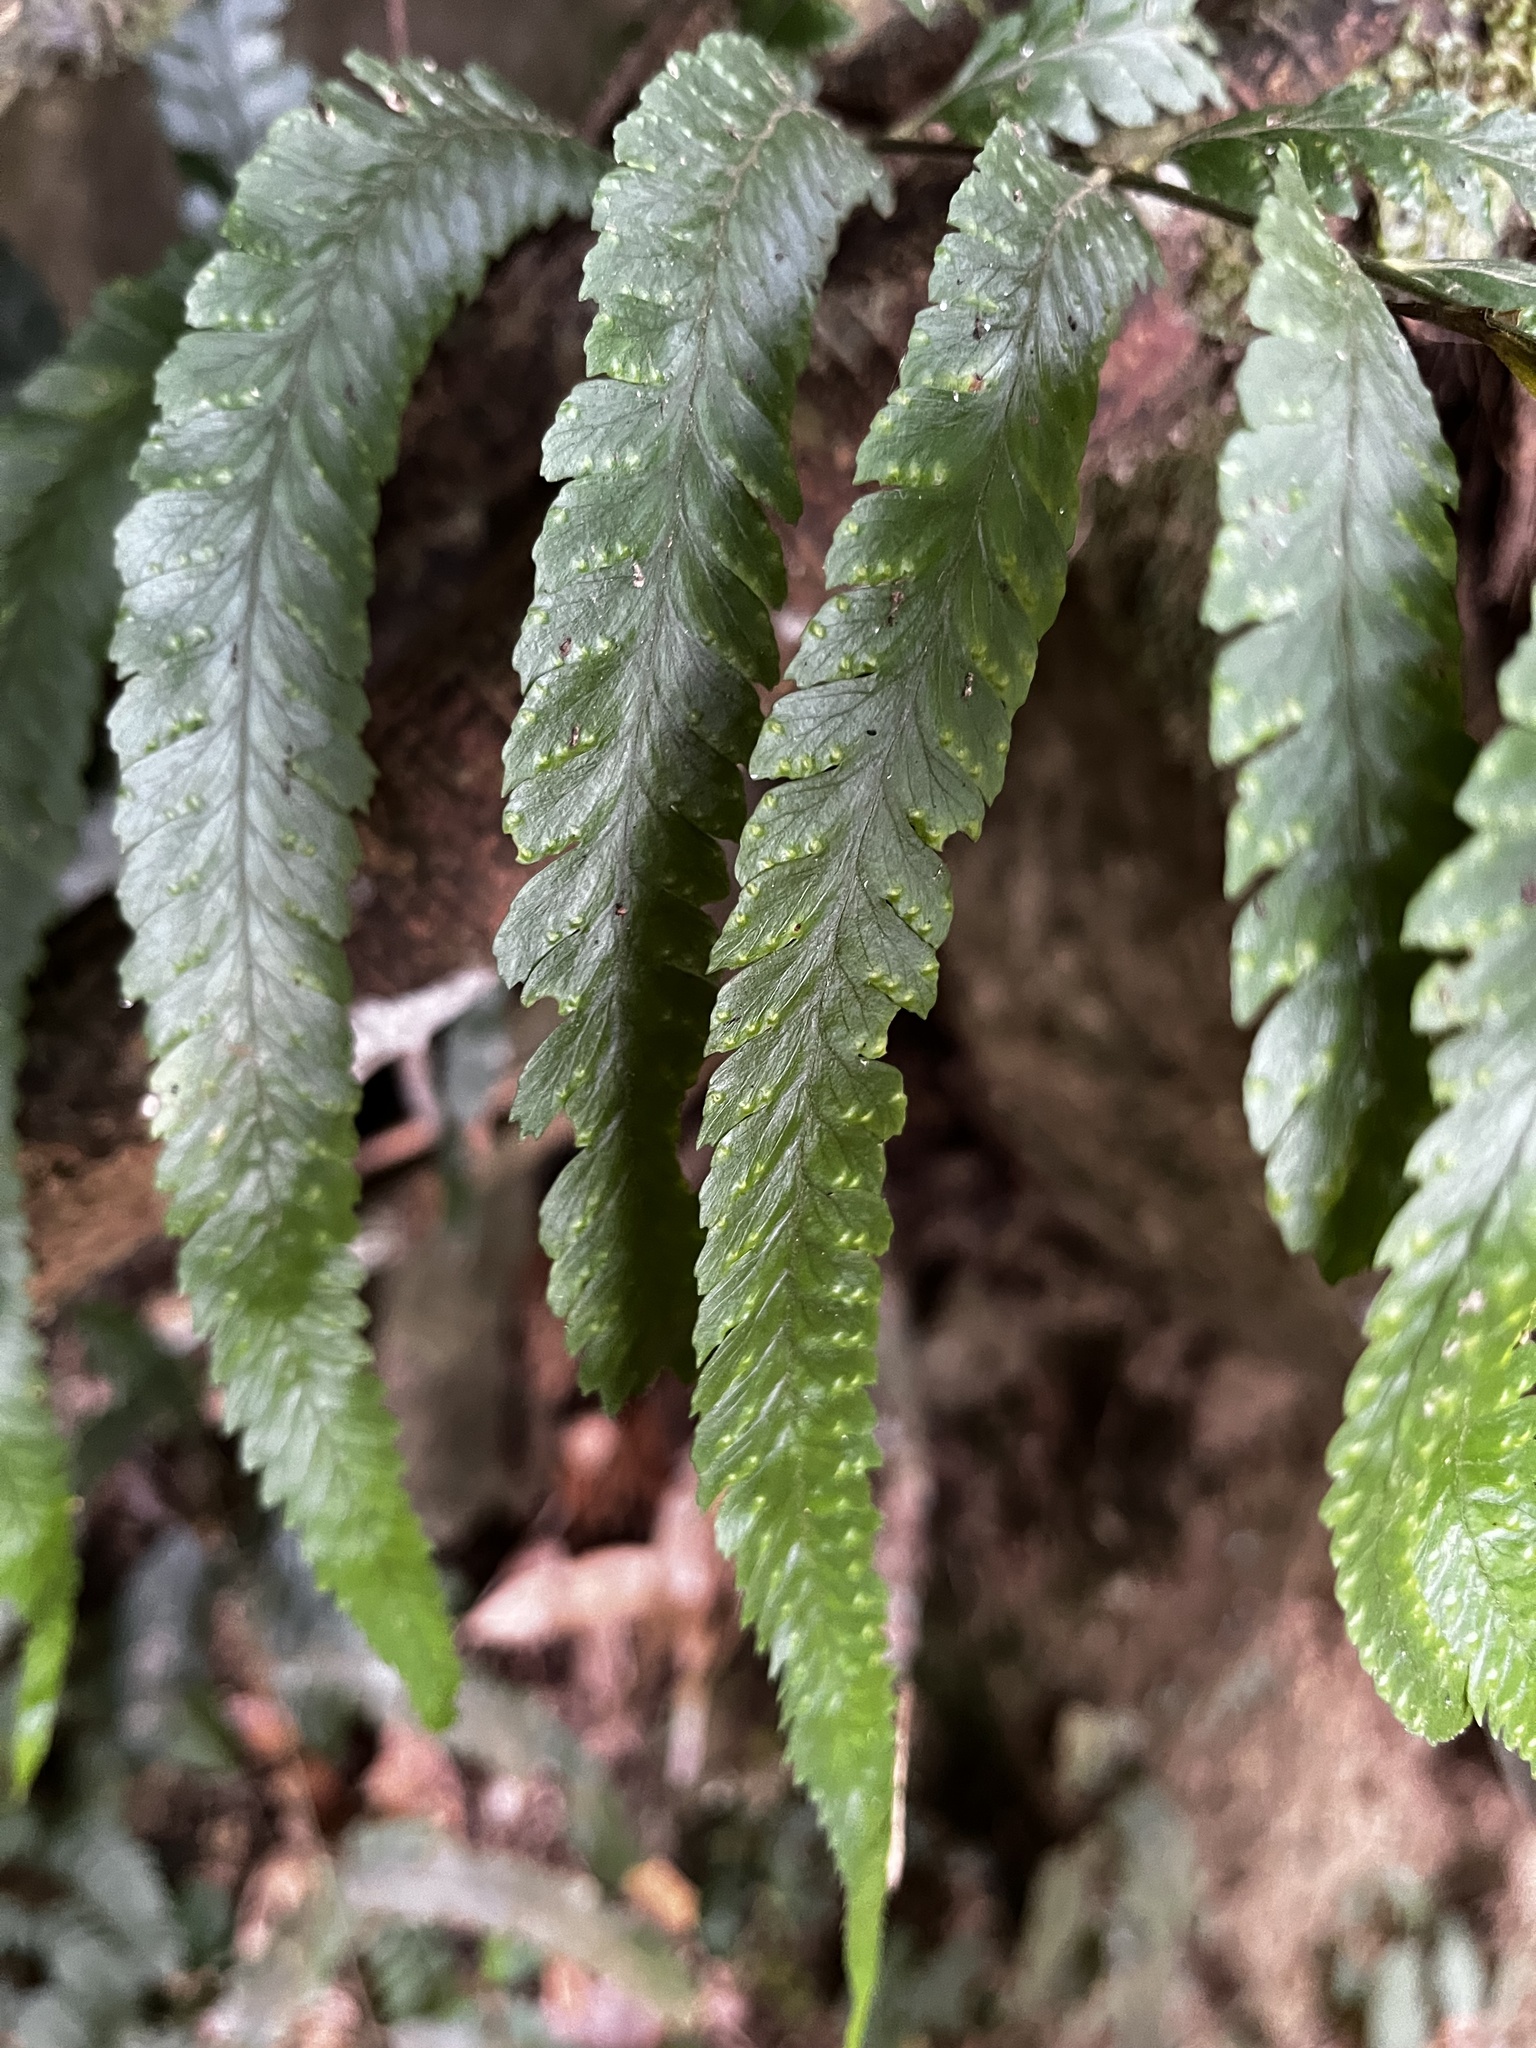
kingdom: Plantae
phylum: Tracheophyta
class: Polypodiopsida
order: Polypodiales
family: Dennstaedtiaceae
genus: Microlepia
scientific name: Microlepia calvescens
